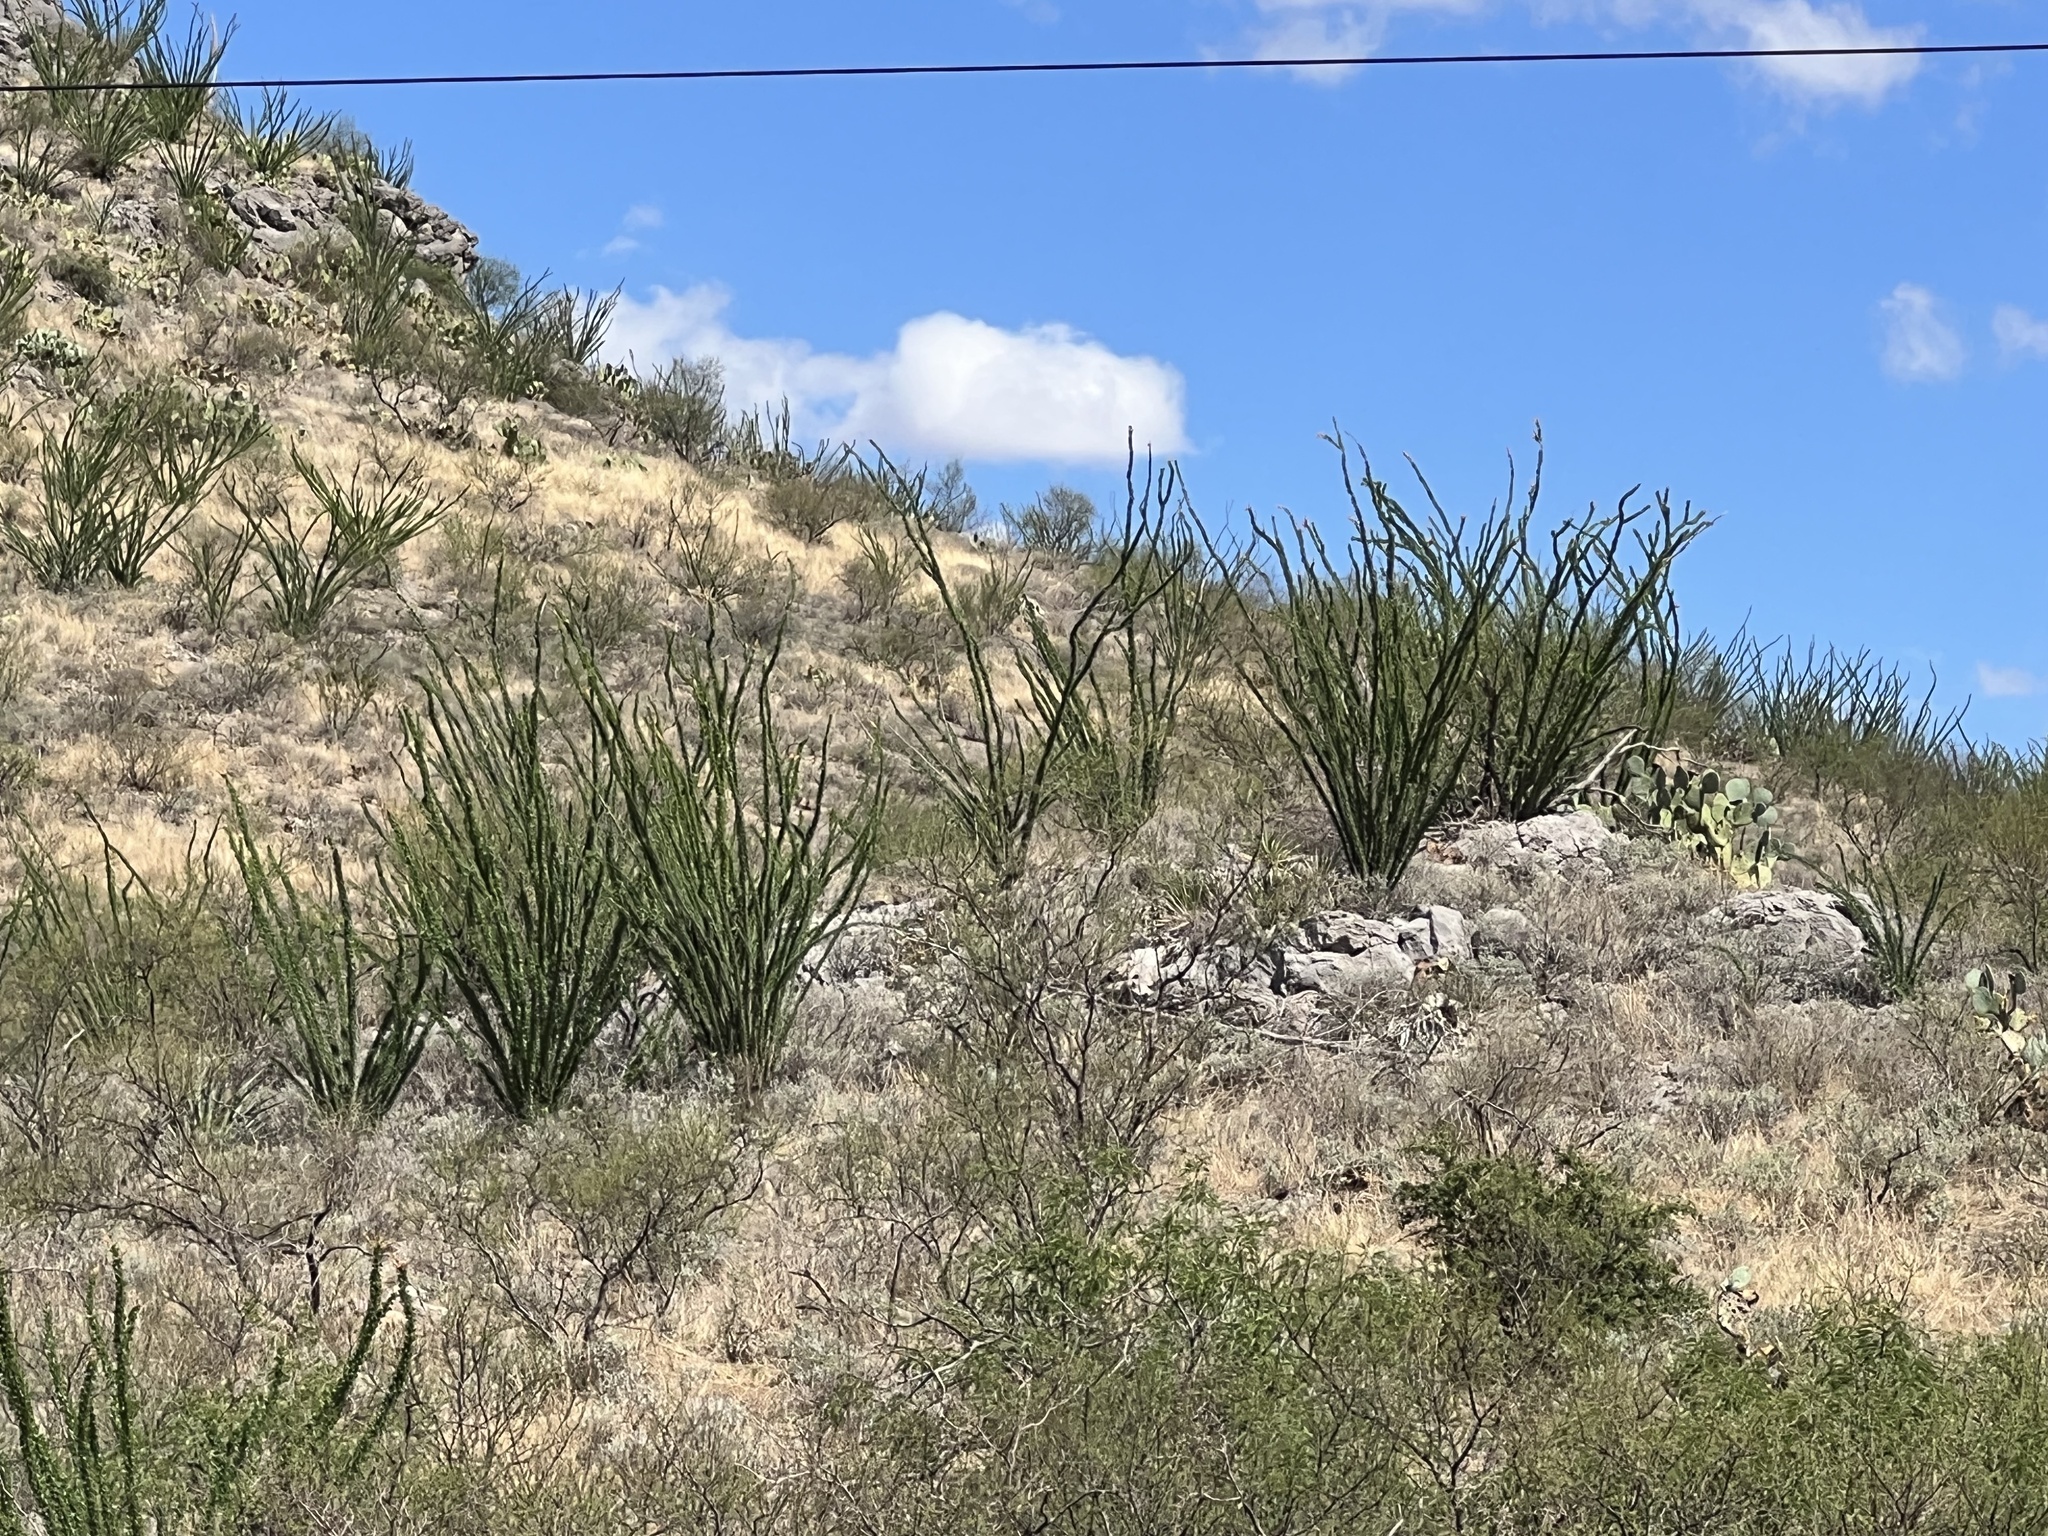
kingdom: Plantae
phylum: Tracheophyta
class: Magnoliopsida
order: Ericales
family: Fouquieriaceae
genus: Fouquieria
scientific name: Fouquieria splendens
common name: Vine-cactus
